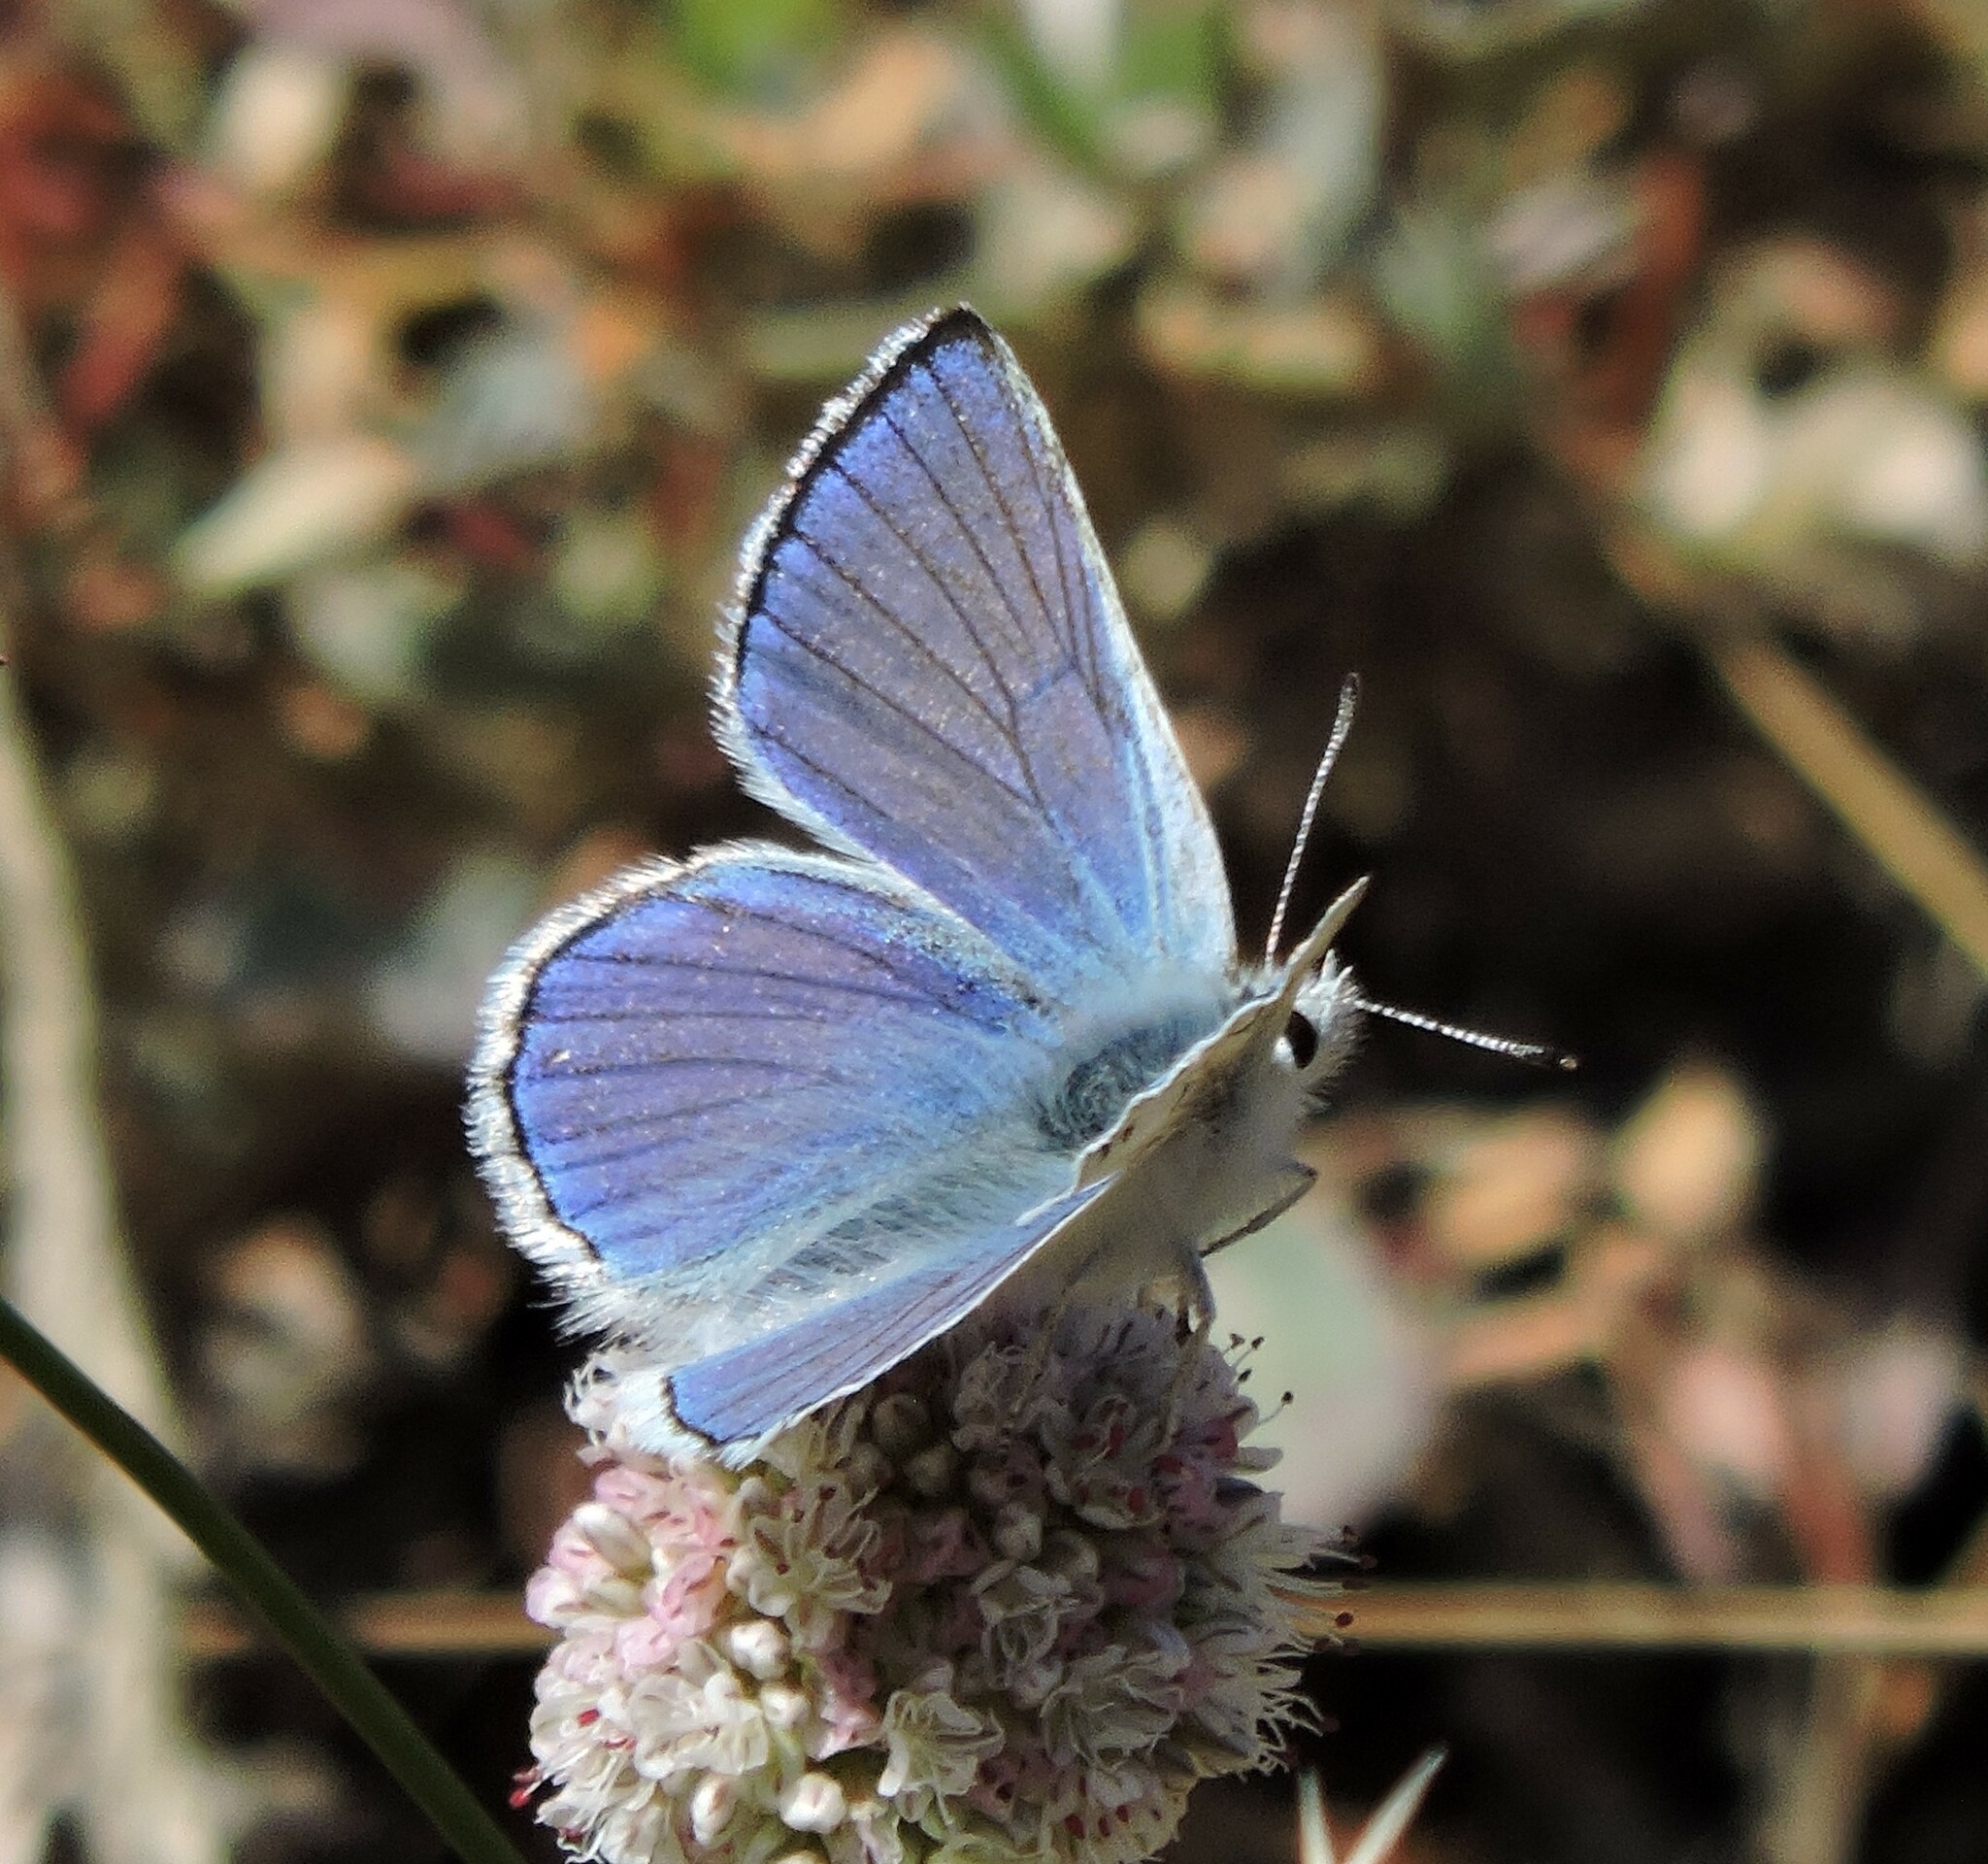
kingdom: Animalia
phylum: Arthropoda
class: Insecta
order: Lepidoptera
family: Lycaenidae
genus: Tharsalea
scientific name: Tharsalea heteronea
